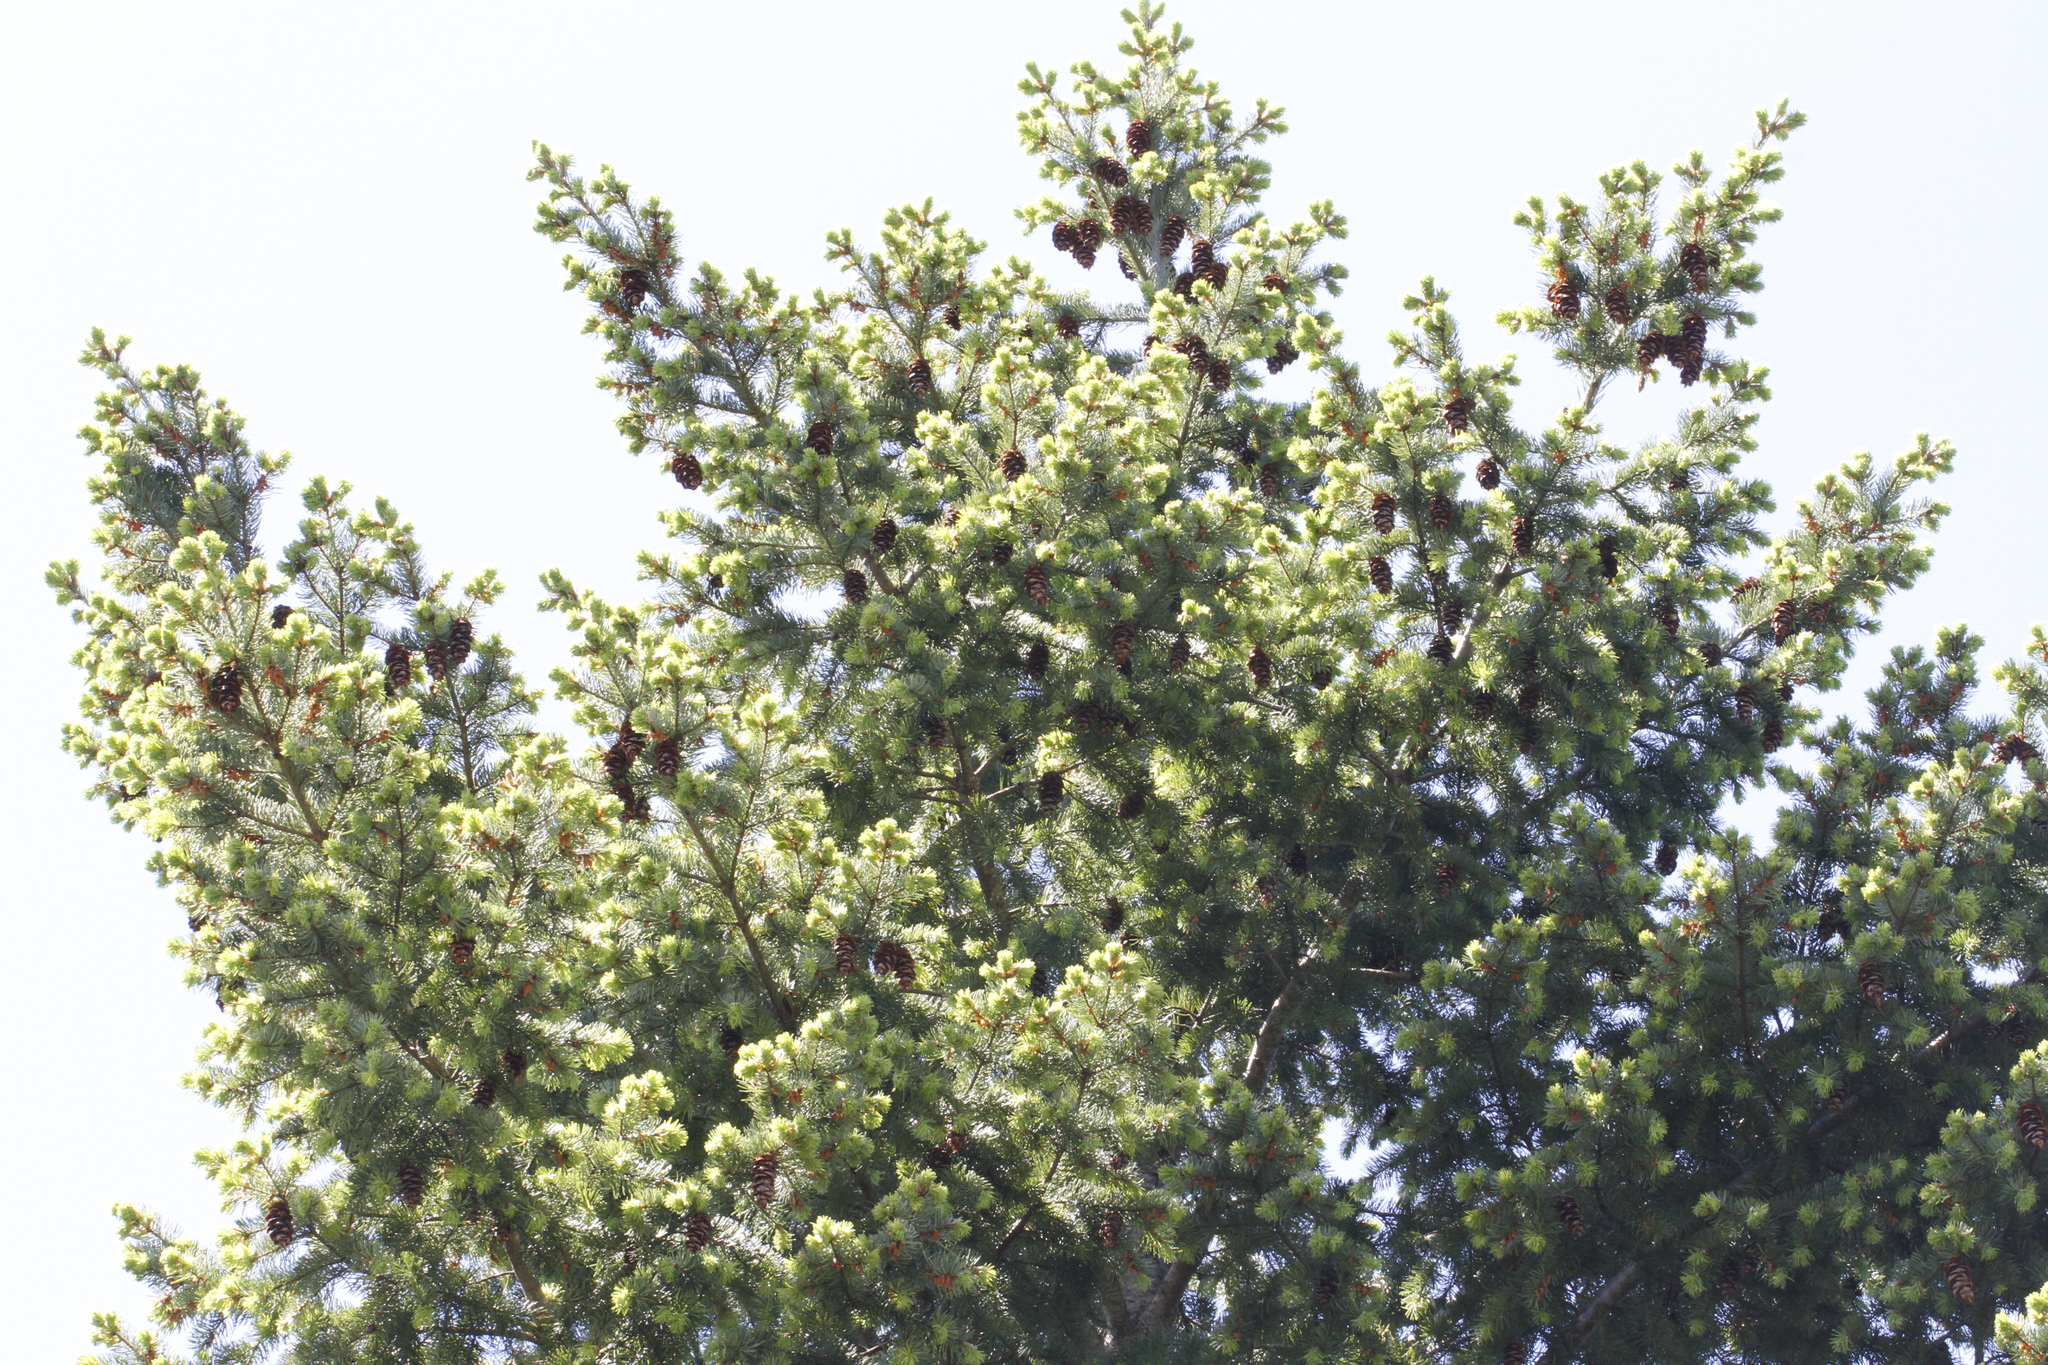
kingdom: Plantae
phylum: Tracheophyta
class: Pinopsida
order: Pinales
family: Pinaceae
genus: Pseudotsuga
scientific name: Pseudotsuga menziesii
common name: Douglas fir
